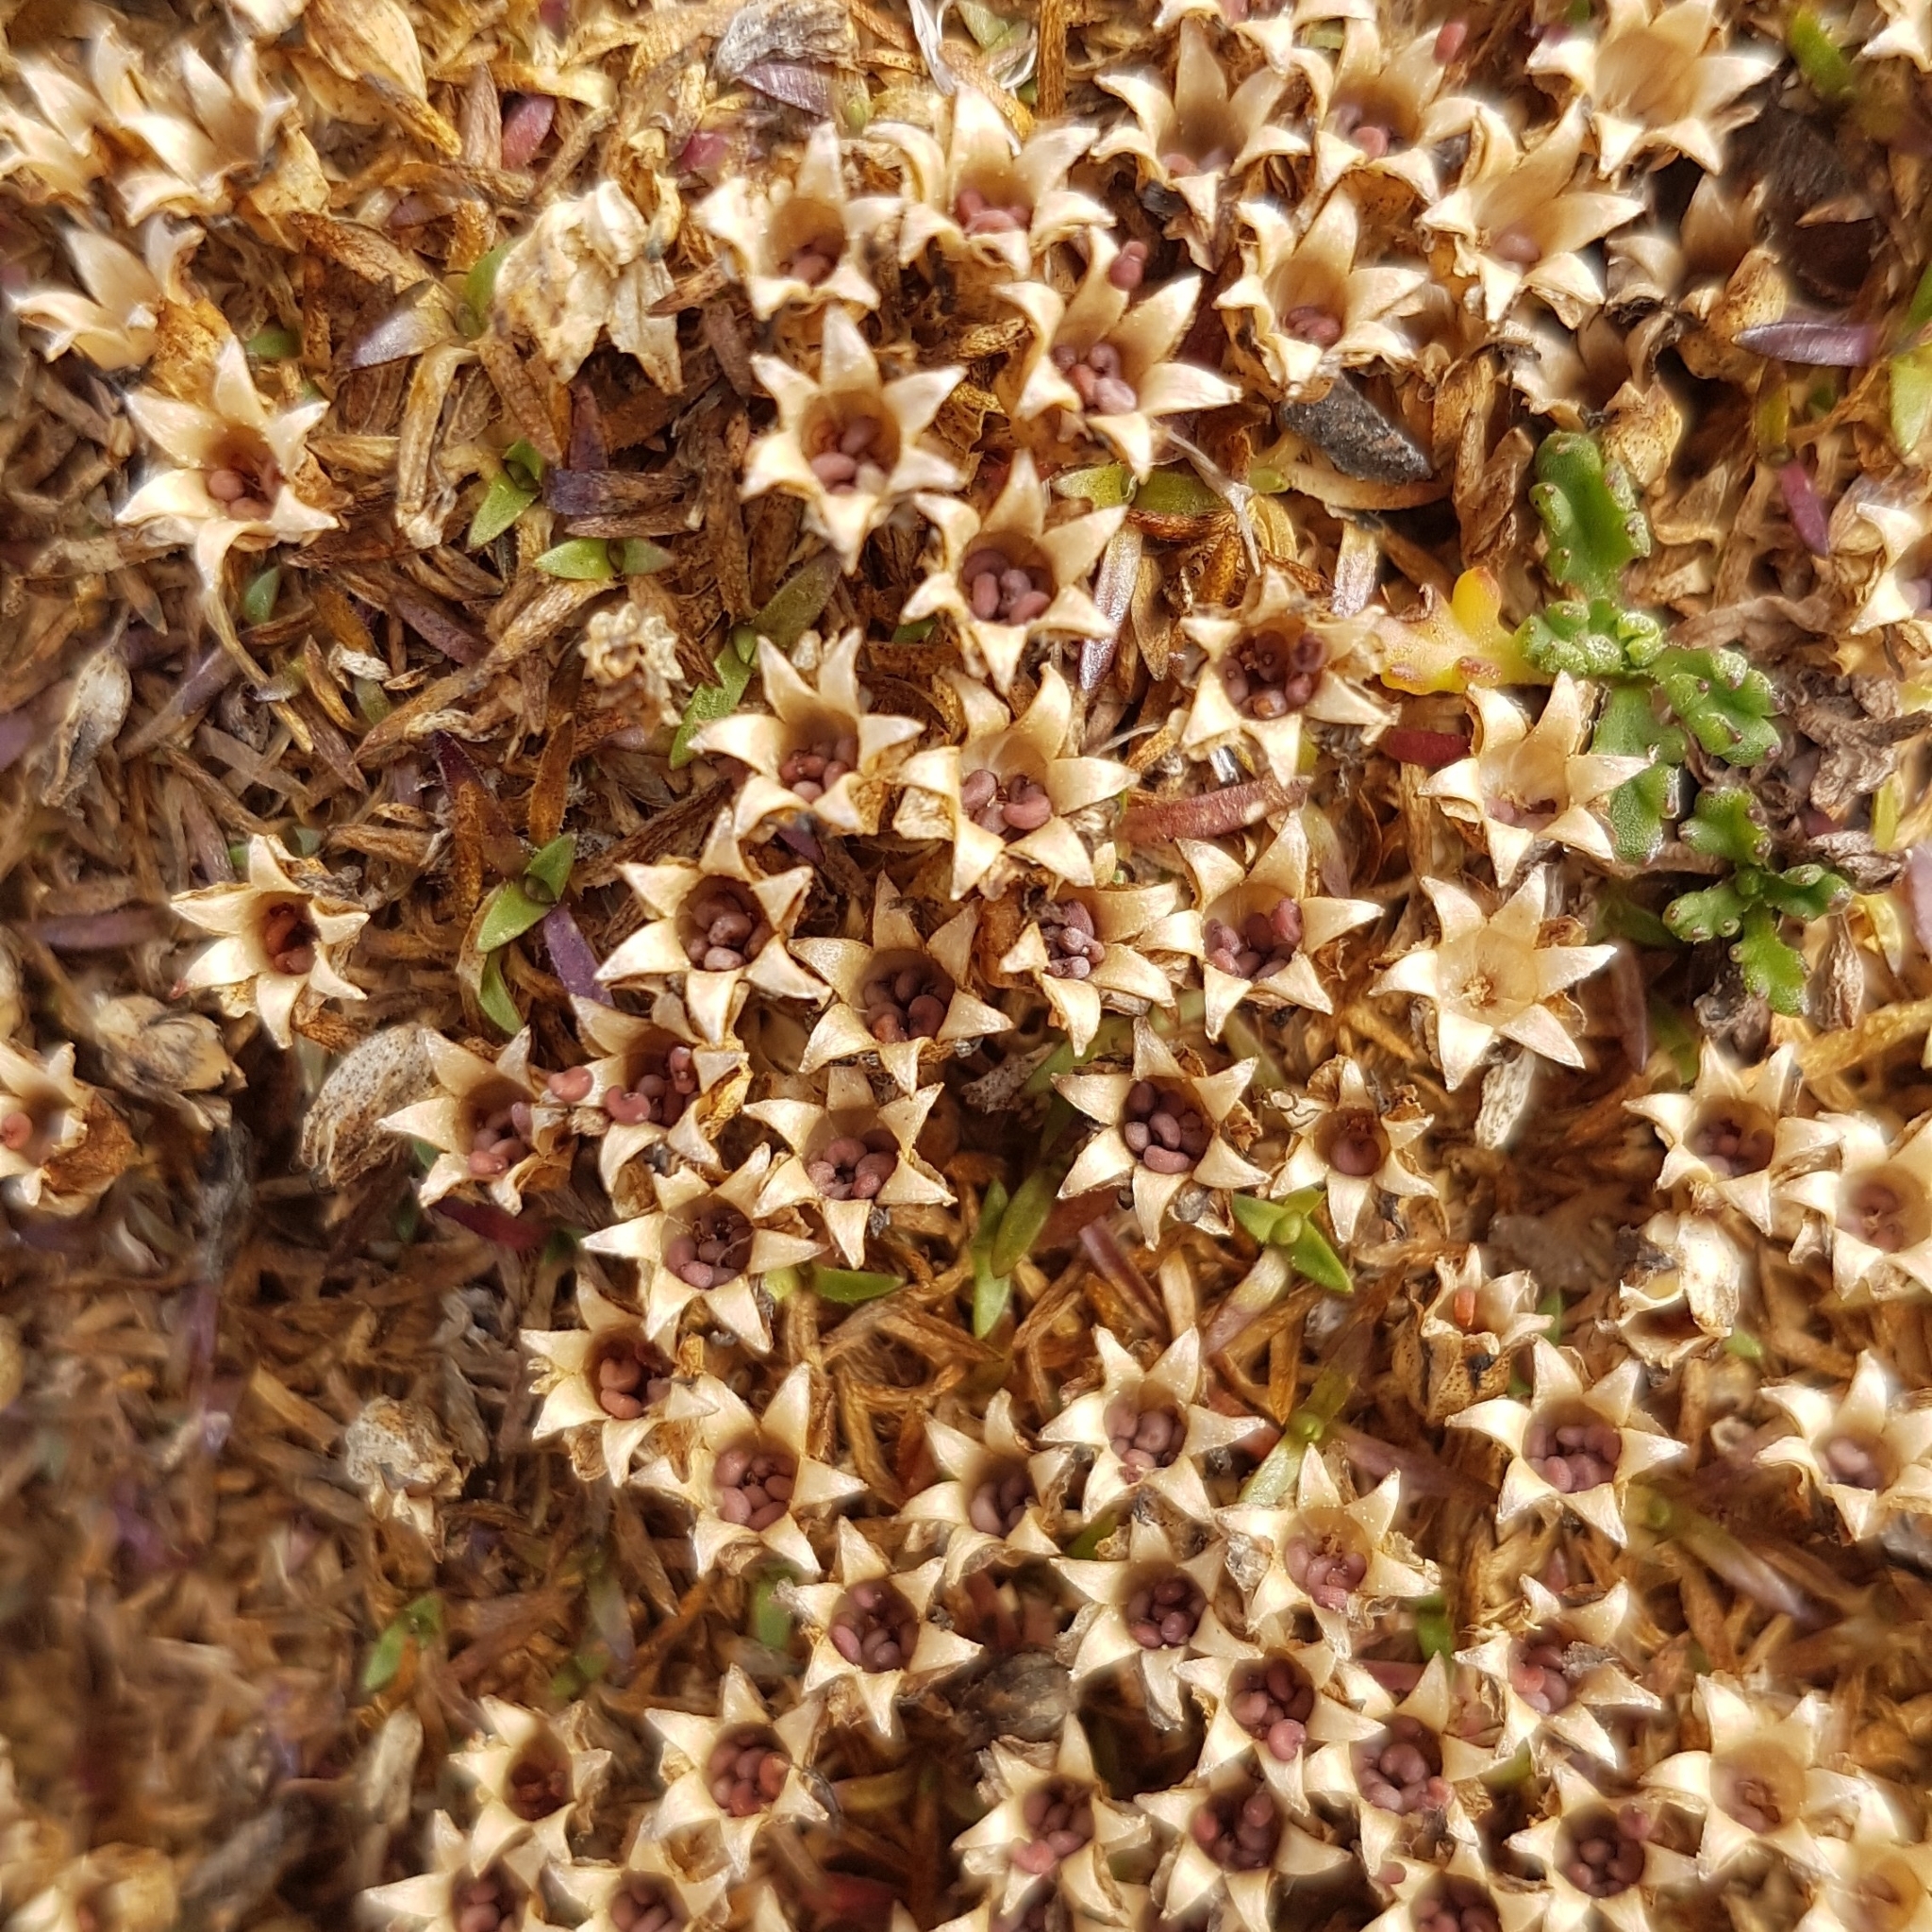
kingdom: Plantae
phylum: Tracheophyta
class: Magnoliopsida
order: Caryophyllales
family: Caryophyllaceae
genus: Silene
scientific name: Silene acaulis
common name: Moss campion
